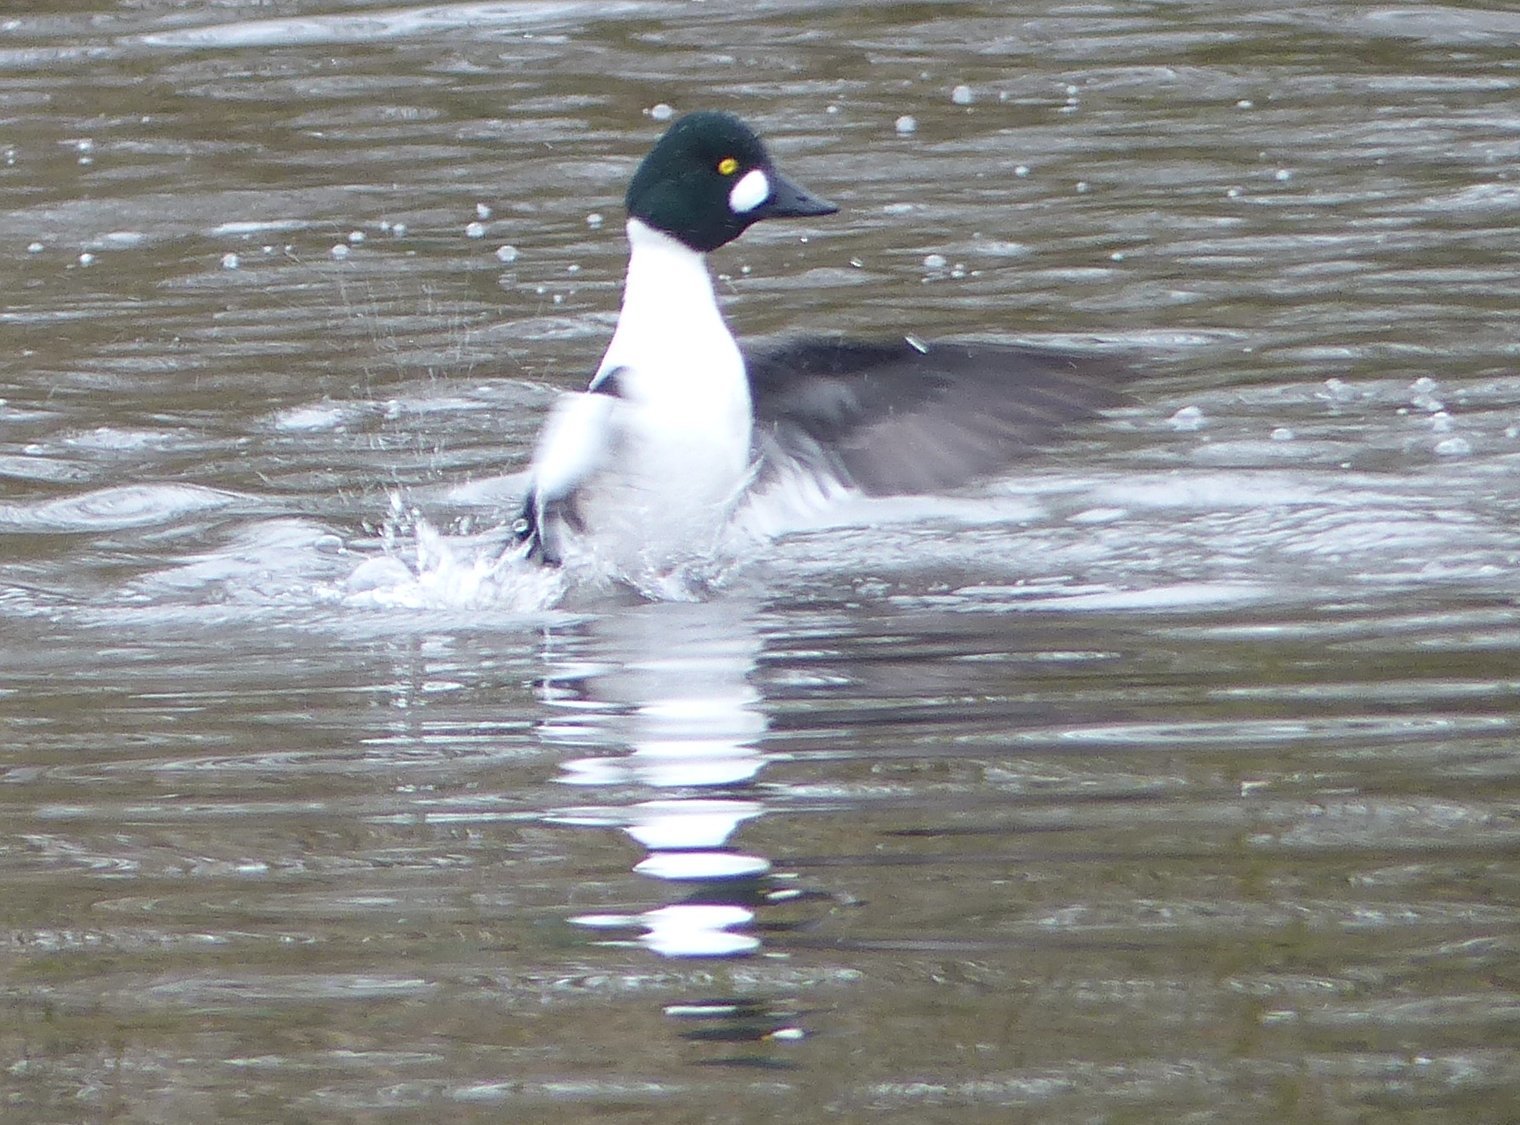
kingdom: Animalia
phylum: Chordata
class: Aves
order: Anseriformes
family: Anatidae
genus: Bucephala
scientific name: Bucephala clangula
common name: Common goldeneye
